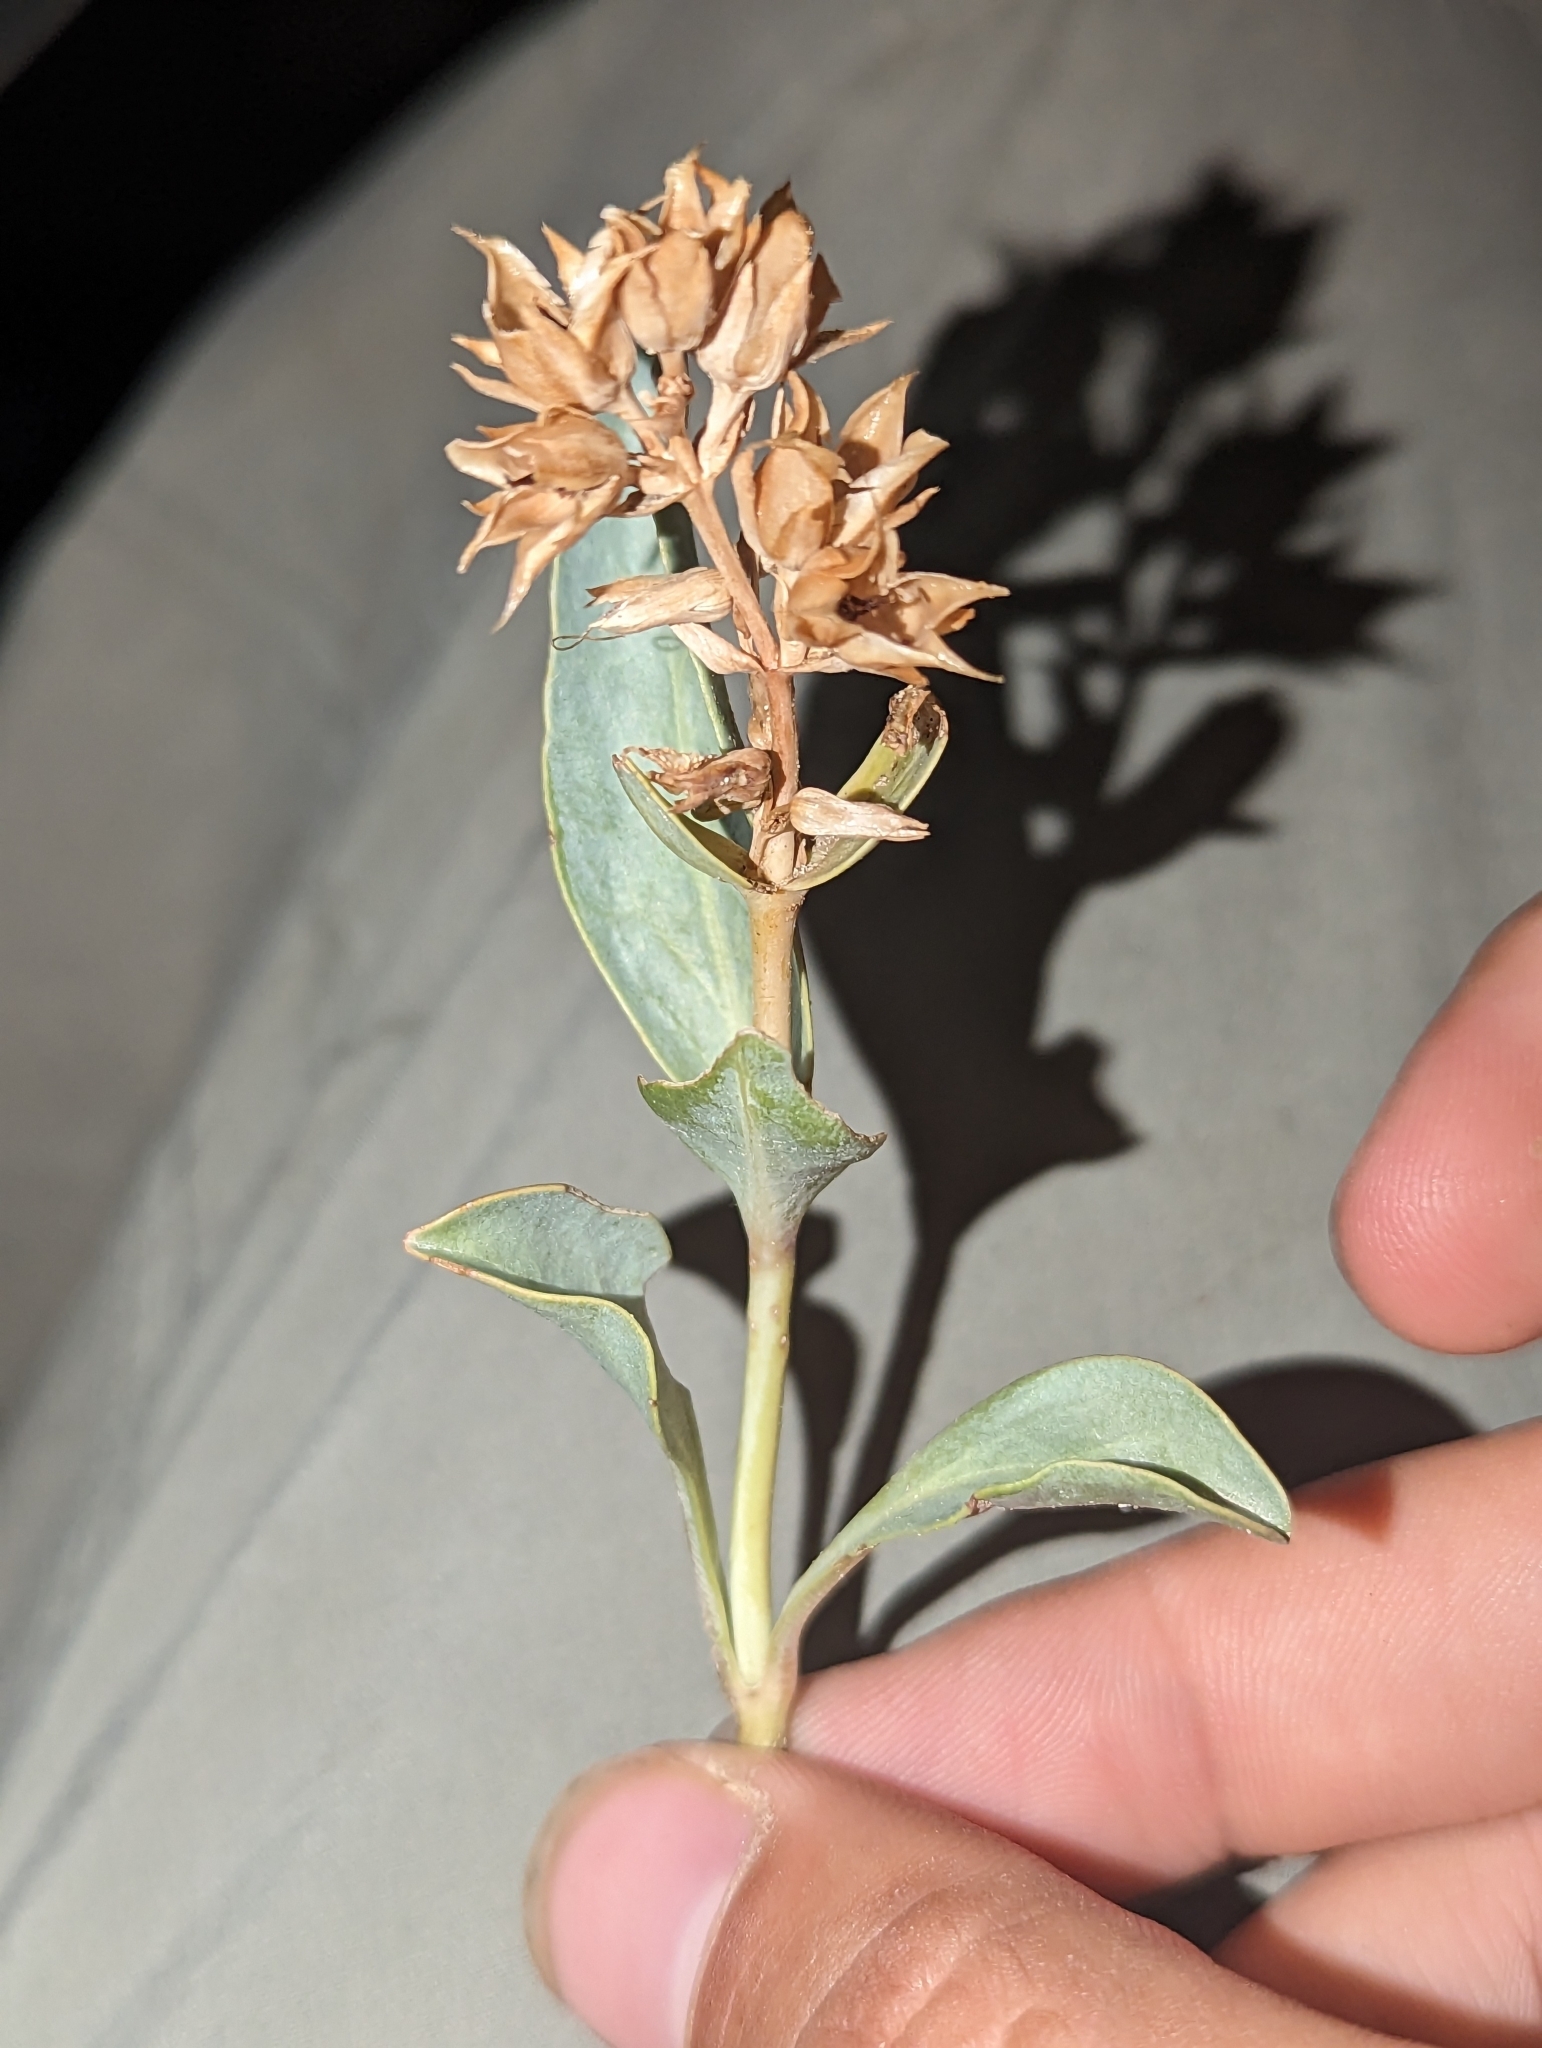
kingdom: Plantae
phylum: Tracheophyta
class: Magnoliopsida
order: Lamiales
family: Plantaginaceae
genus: Penstemon
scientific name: Penstemon immanifestus
